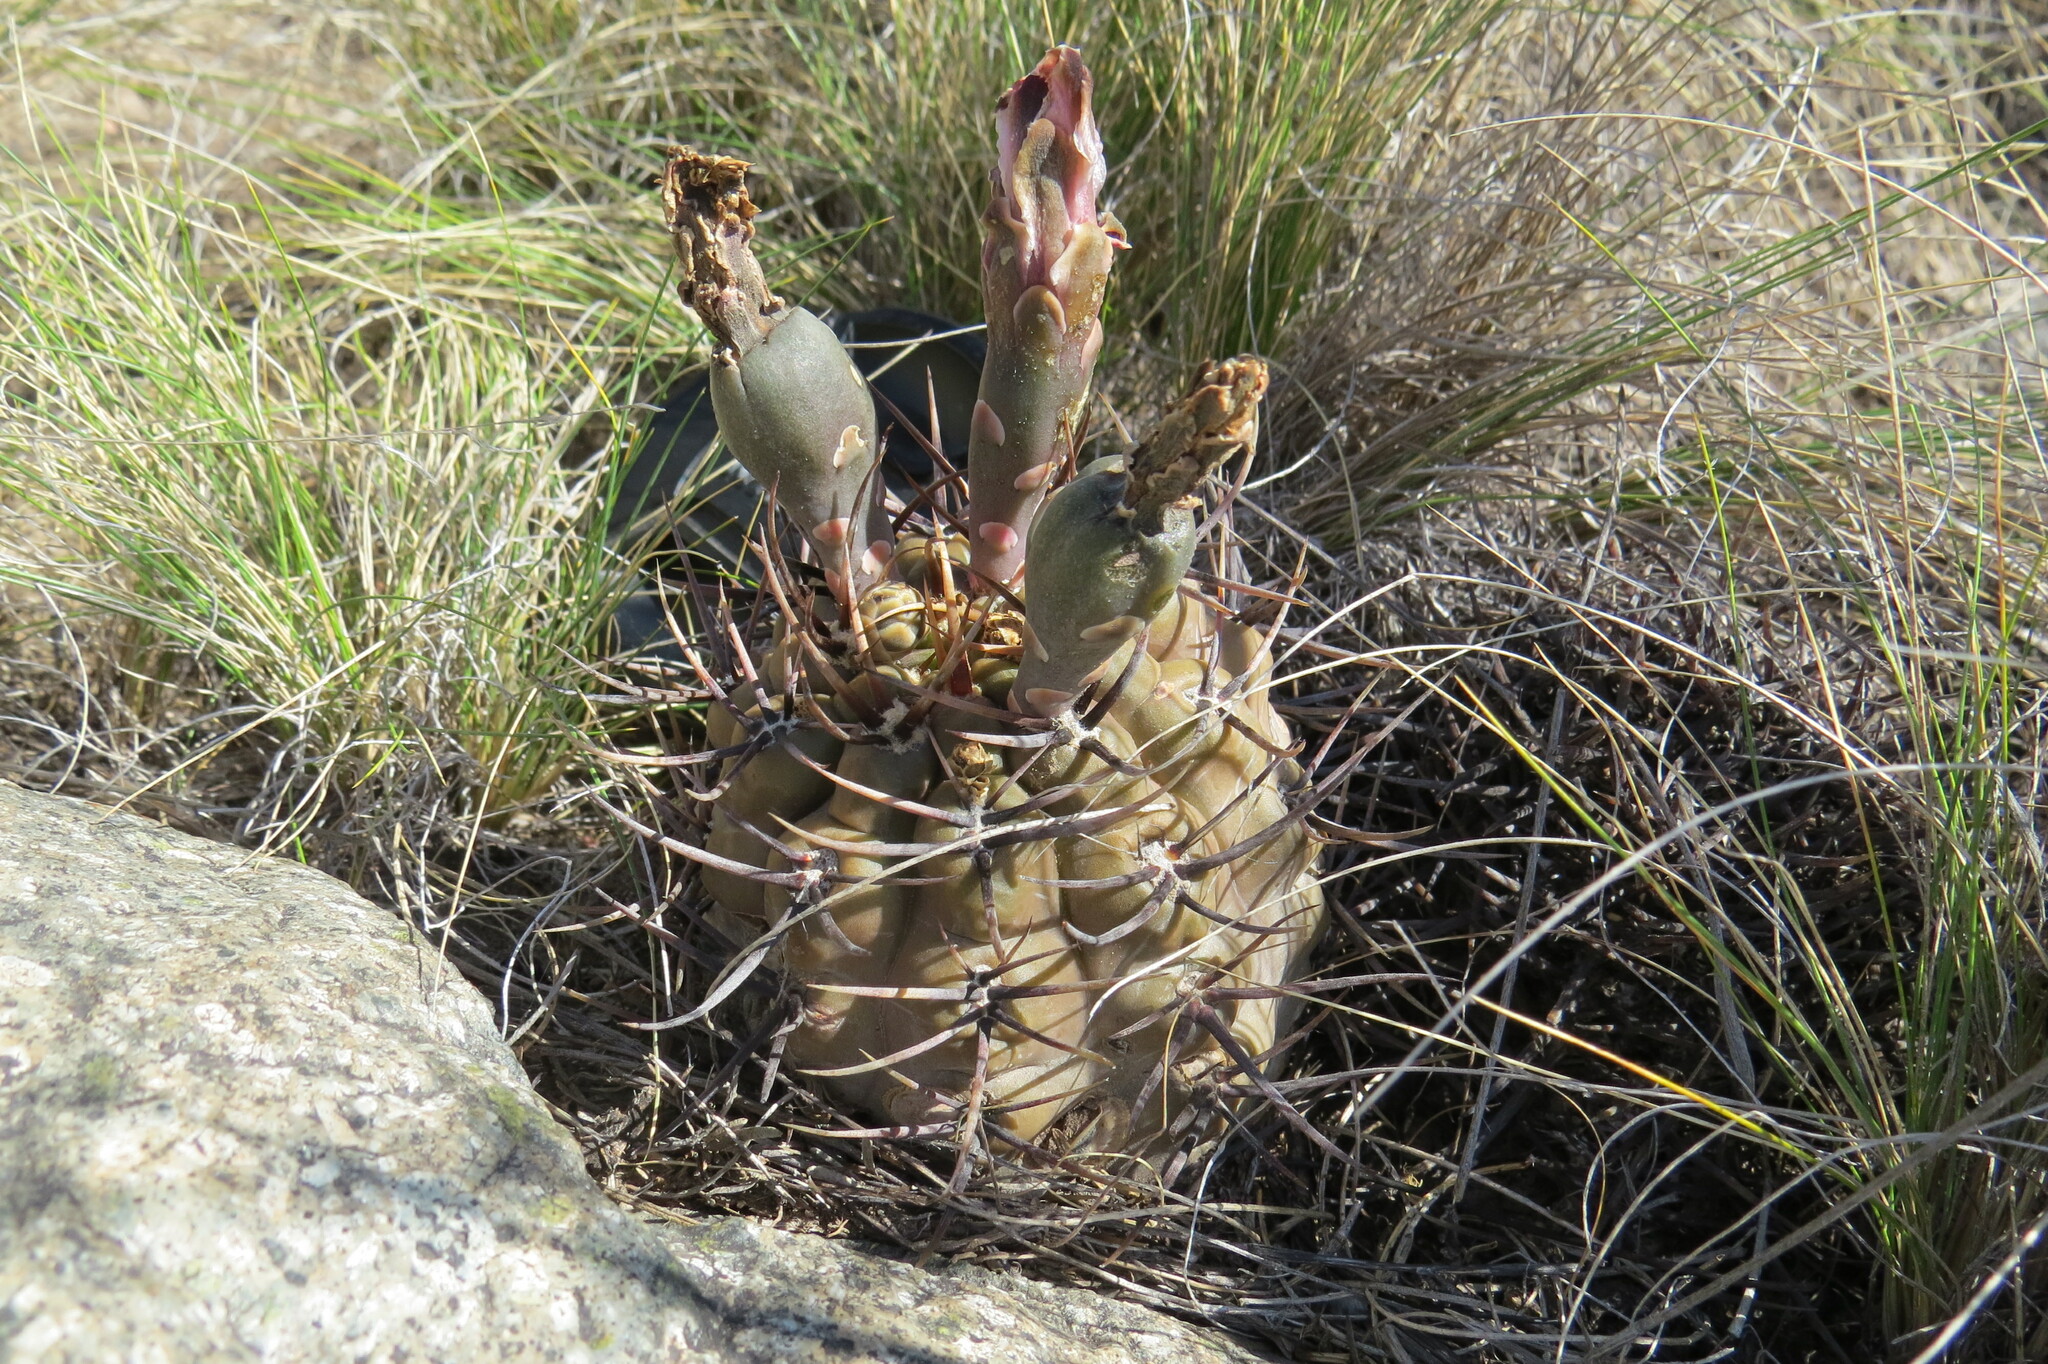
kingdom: Plantae
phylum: Tracheophyta
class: Magnoliopsida
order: Caryophyllales
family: Cactaceae
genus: Gymnocalycium
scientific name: Gymnocalycium striglianum
